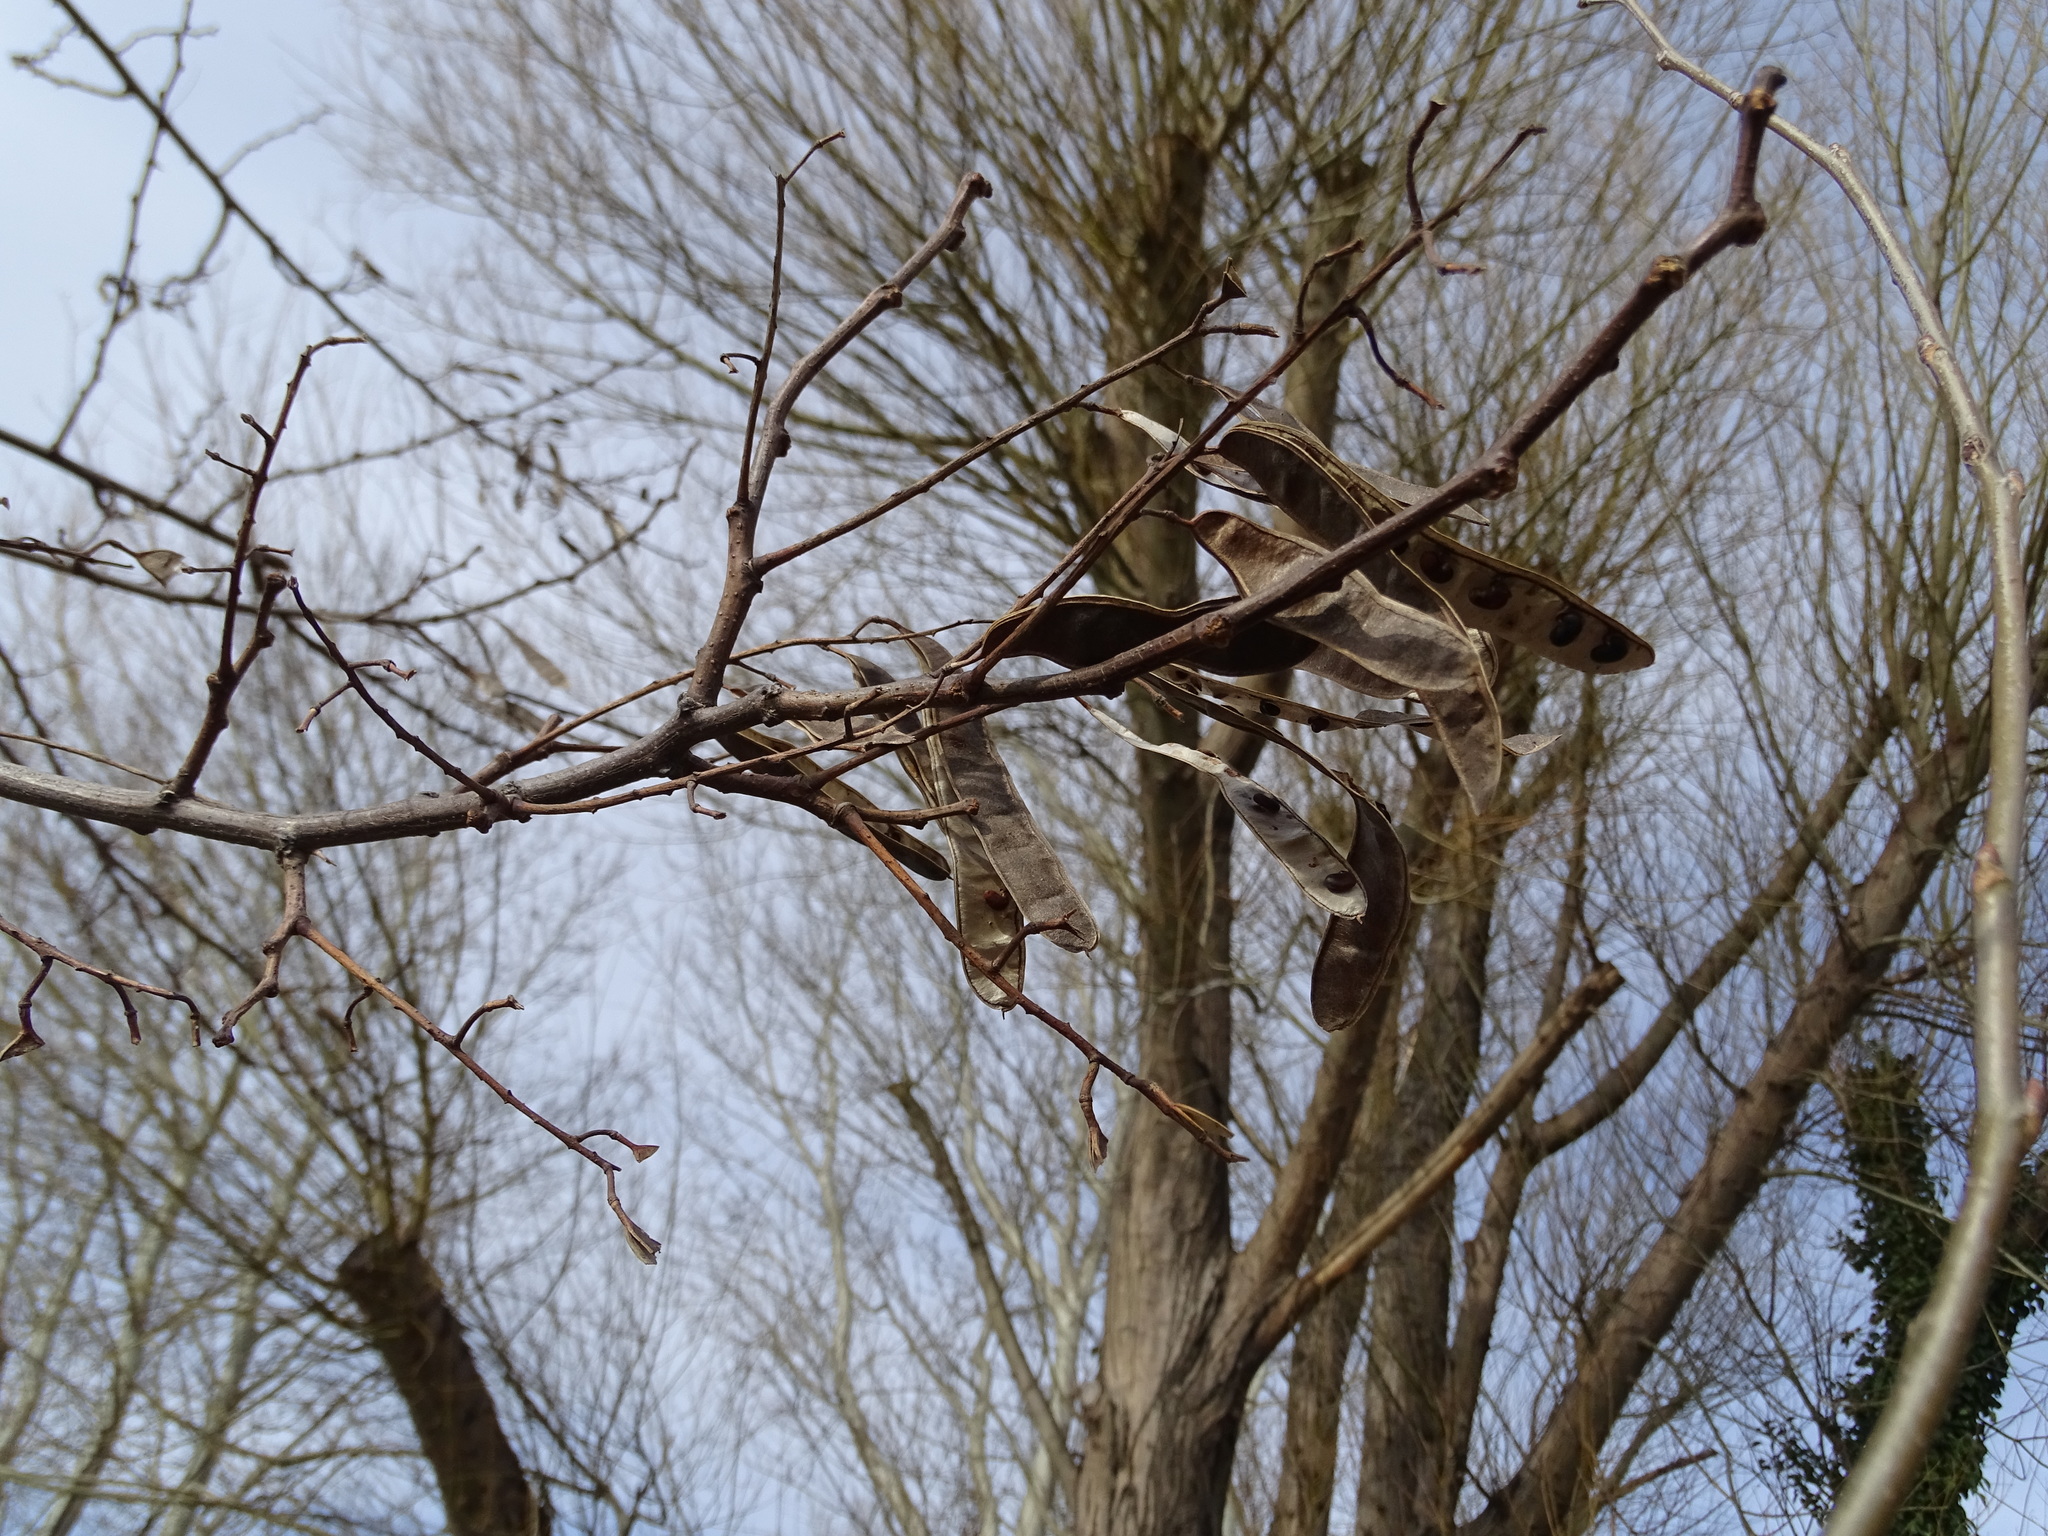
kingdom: Plantae
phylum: Tracheophyta
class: Magnoliopsida
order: Fabales
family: Fabaceae
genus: Robinia
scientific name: Robinia pseudoacacia
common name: Black locust
